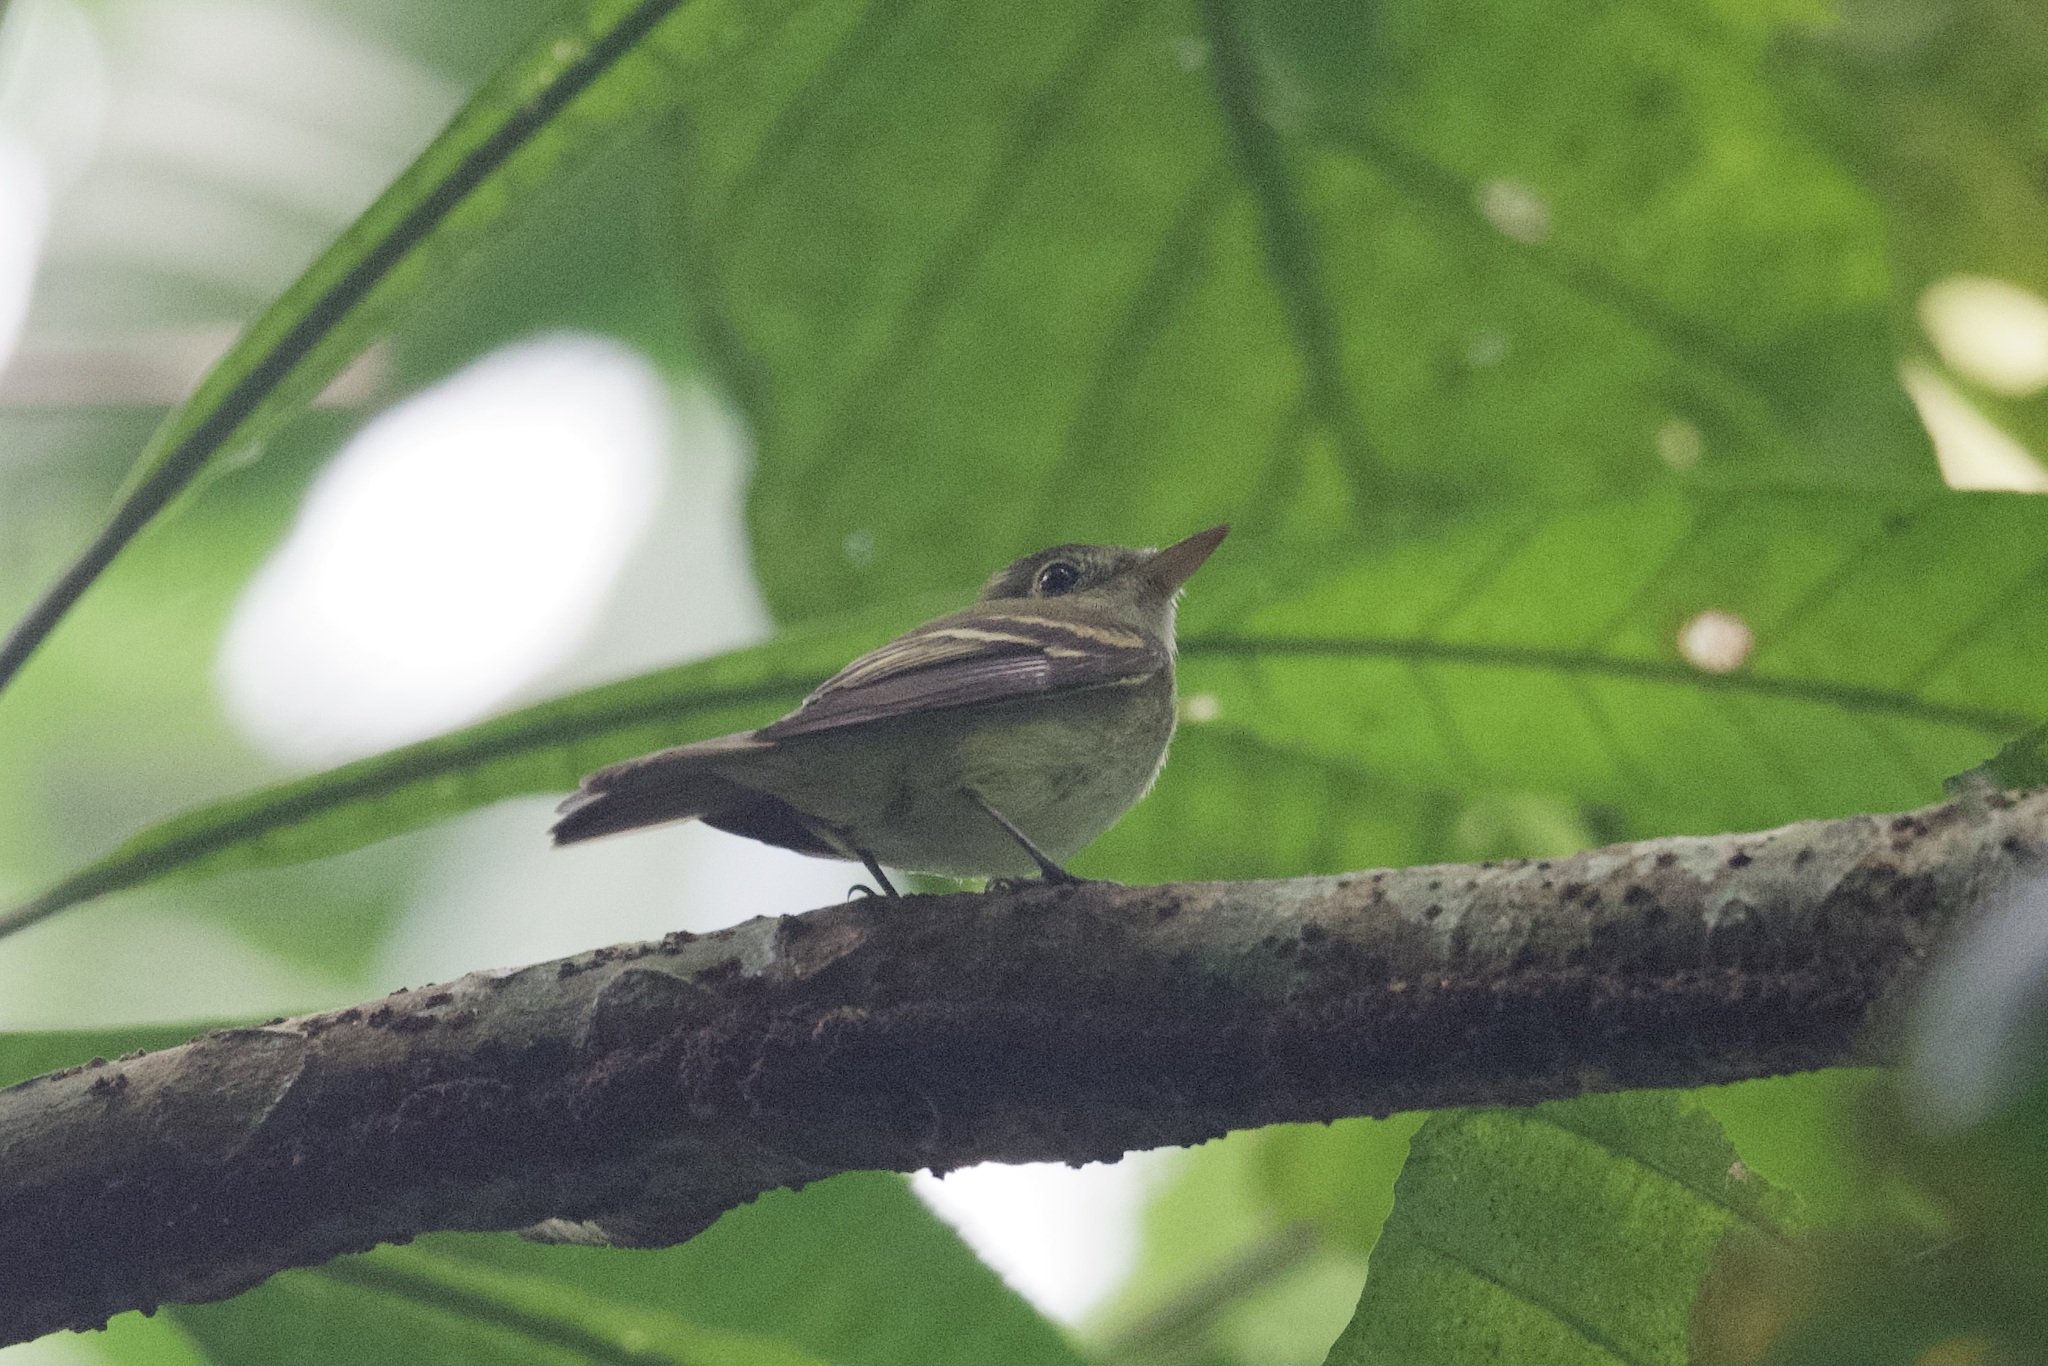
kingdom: Animalia
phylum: Chordata
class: Aves
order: Passeriformes
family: Tyrannidae
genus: Empidonax
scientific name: Empidonax virescens
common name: Acadian flycatcher
